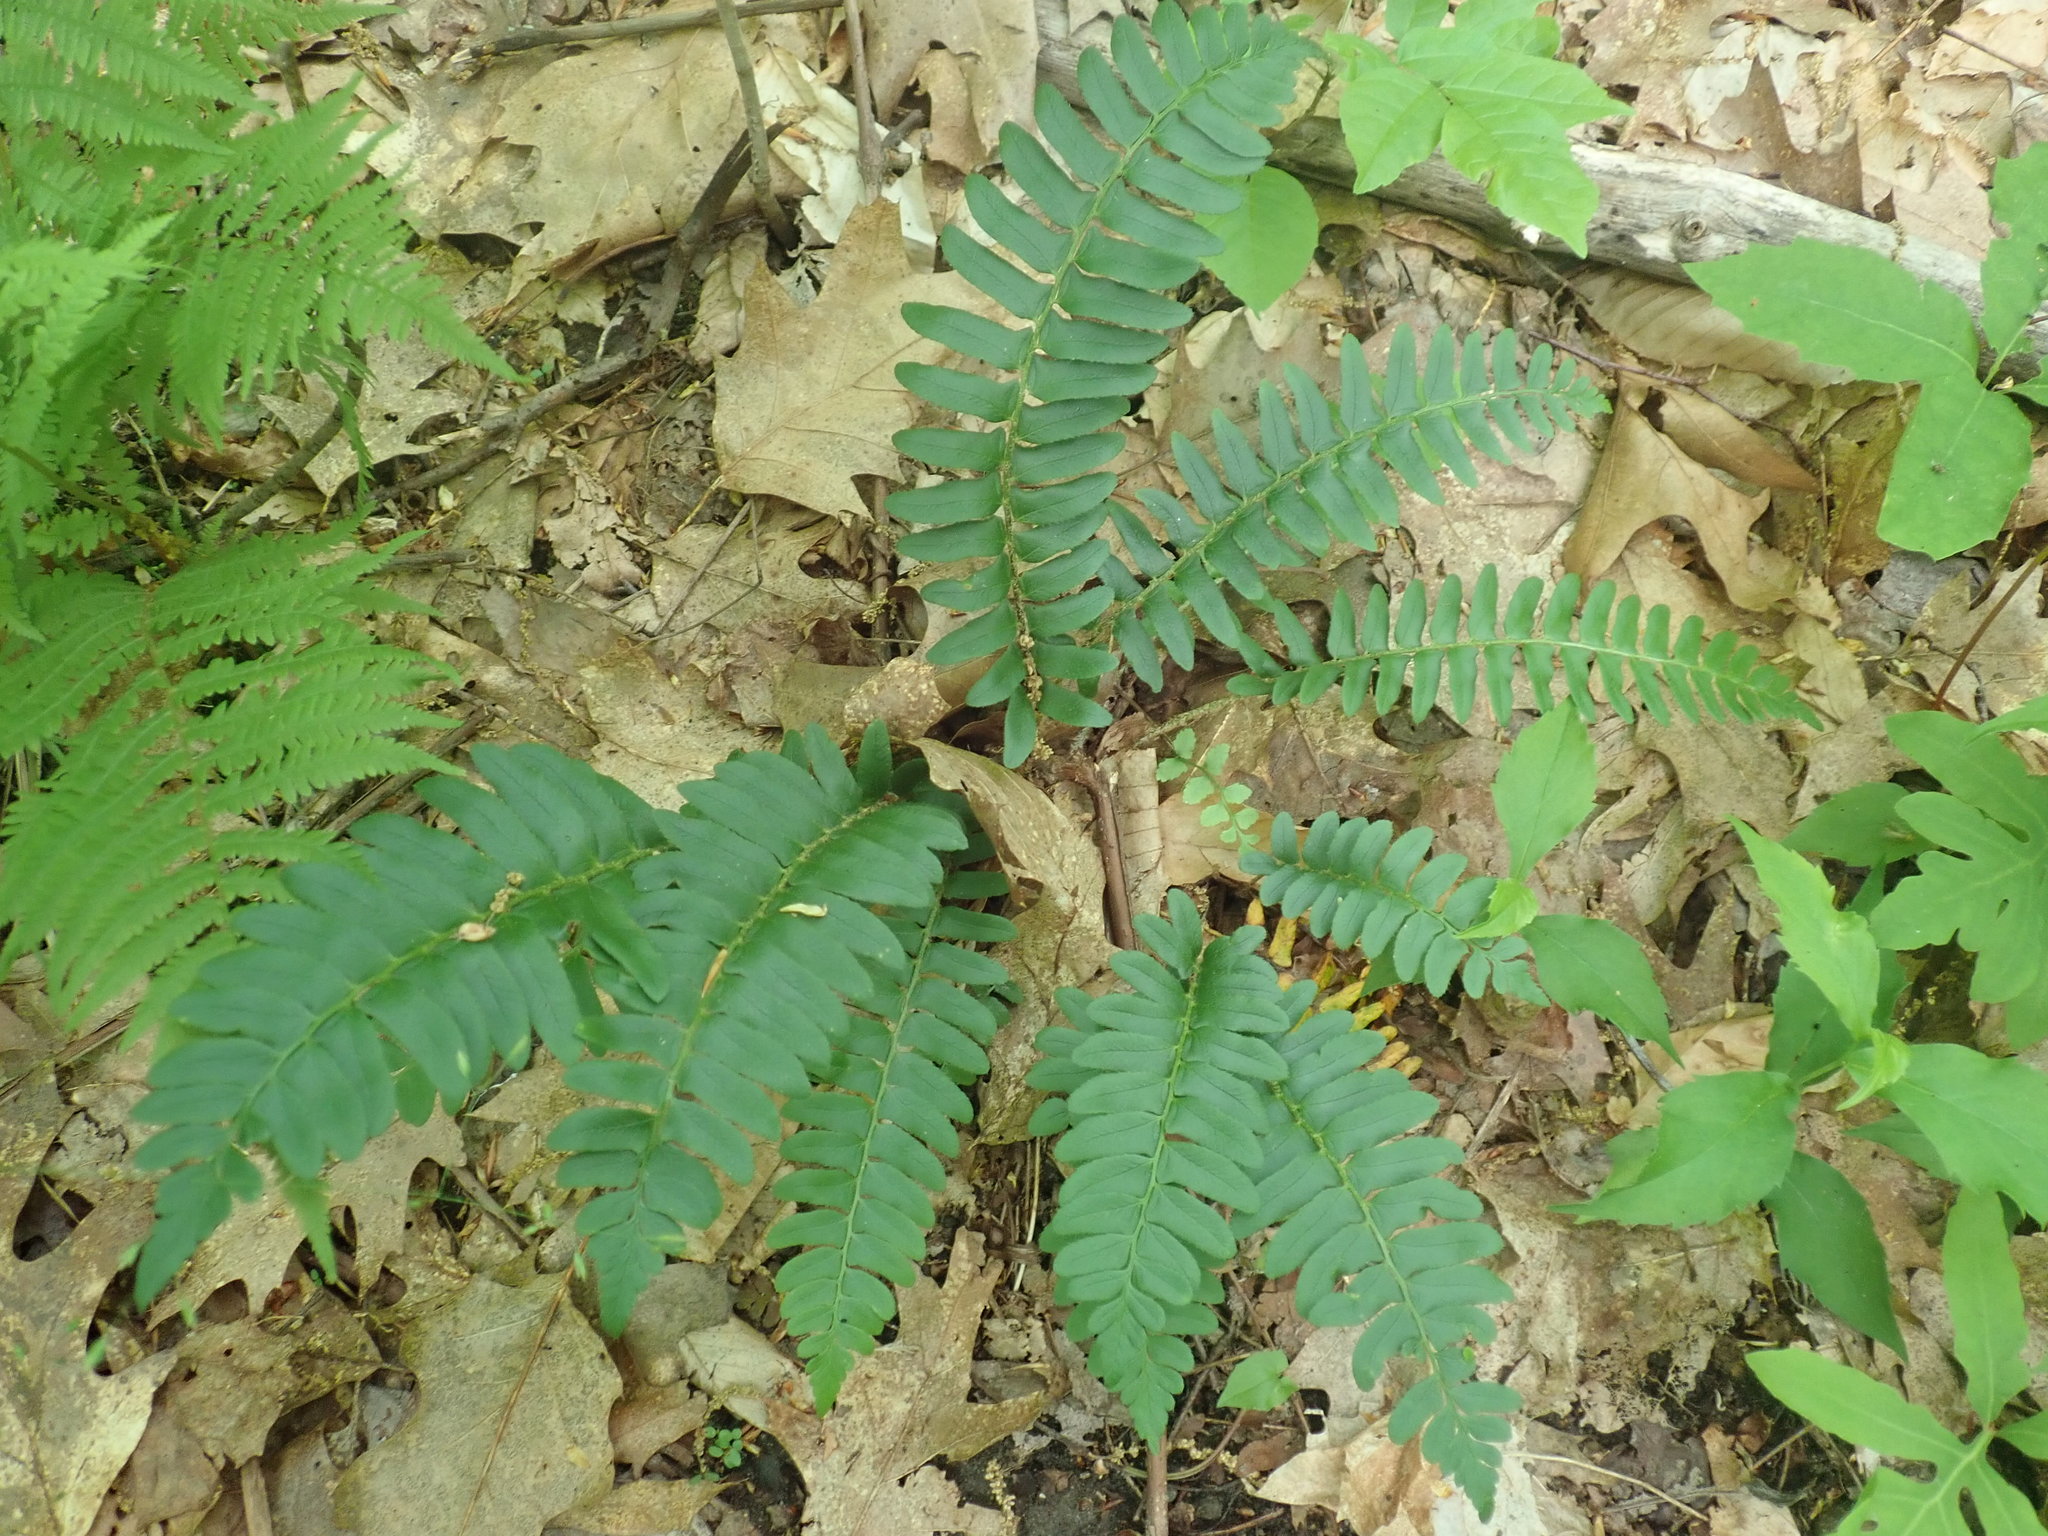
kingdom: Plantae
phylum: Tracheophyta
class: Polypodiopsida
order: Polypodiales
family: Dryopteridaceae
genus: Polystichum
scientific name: Polystichum acrostichoides
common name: Christmas fern
